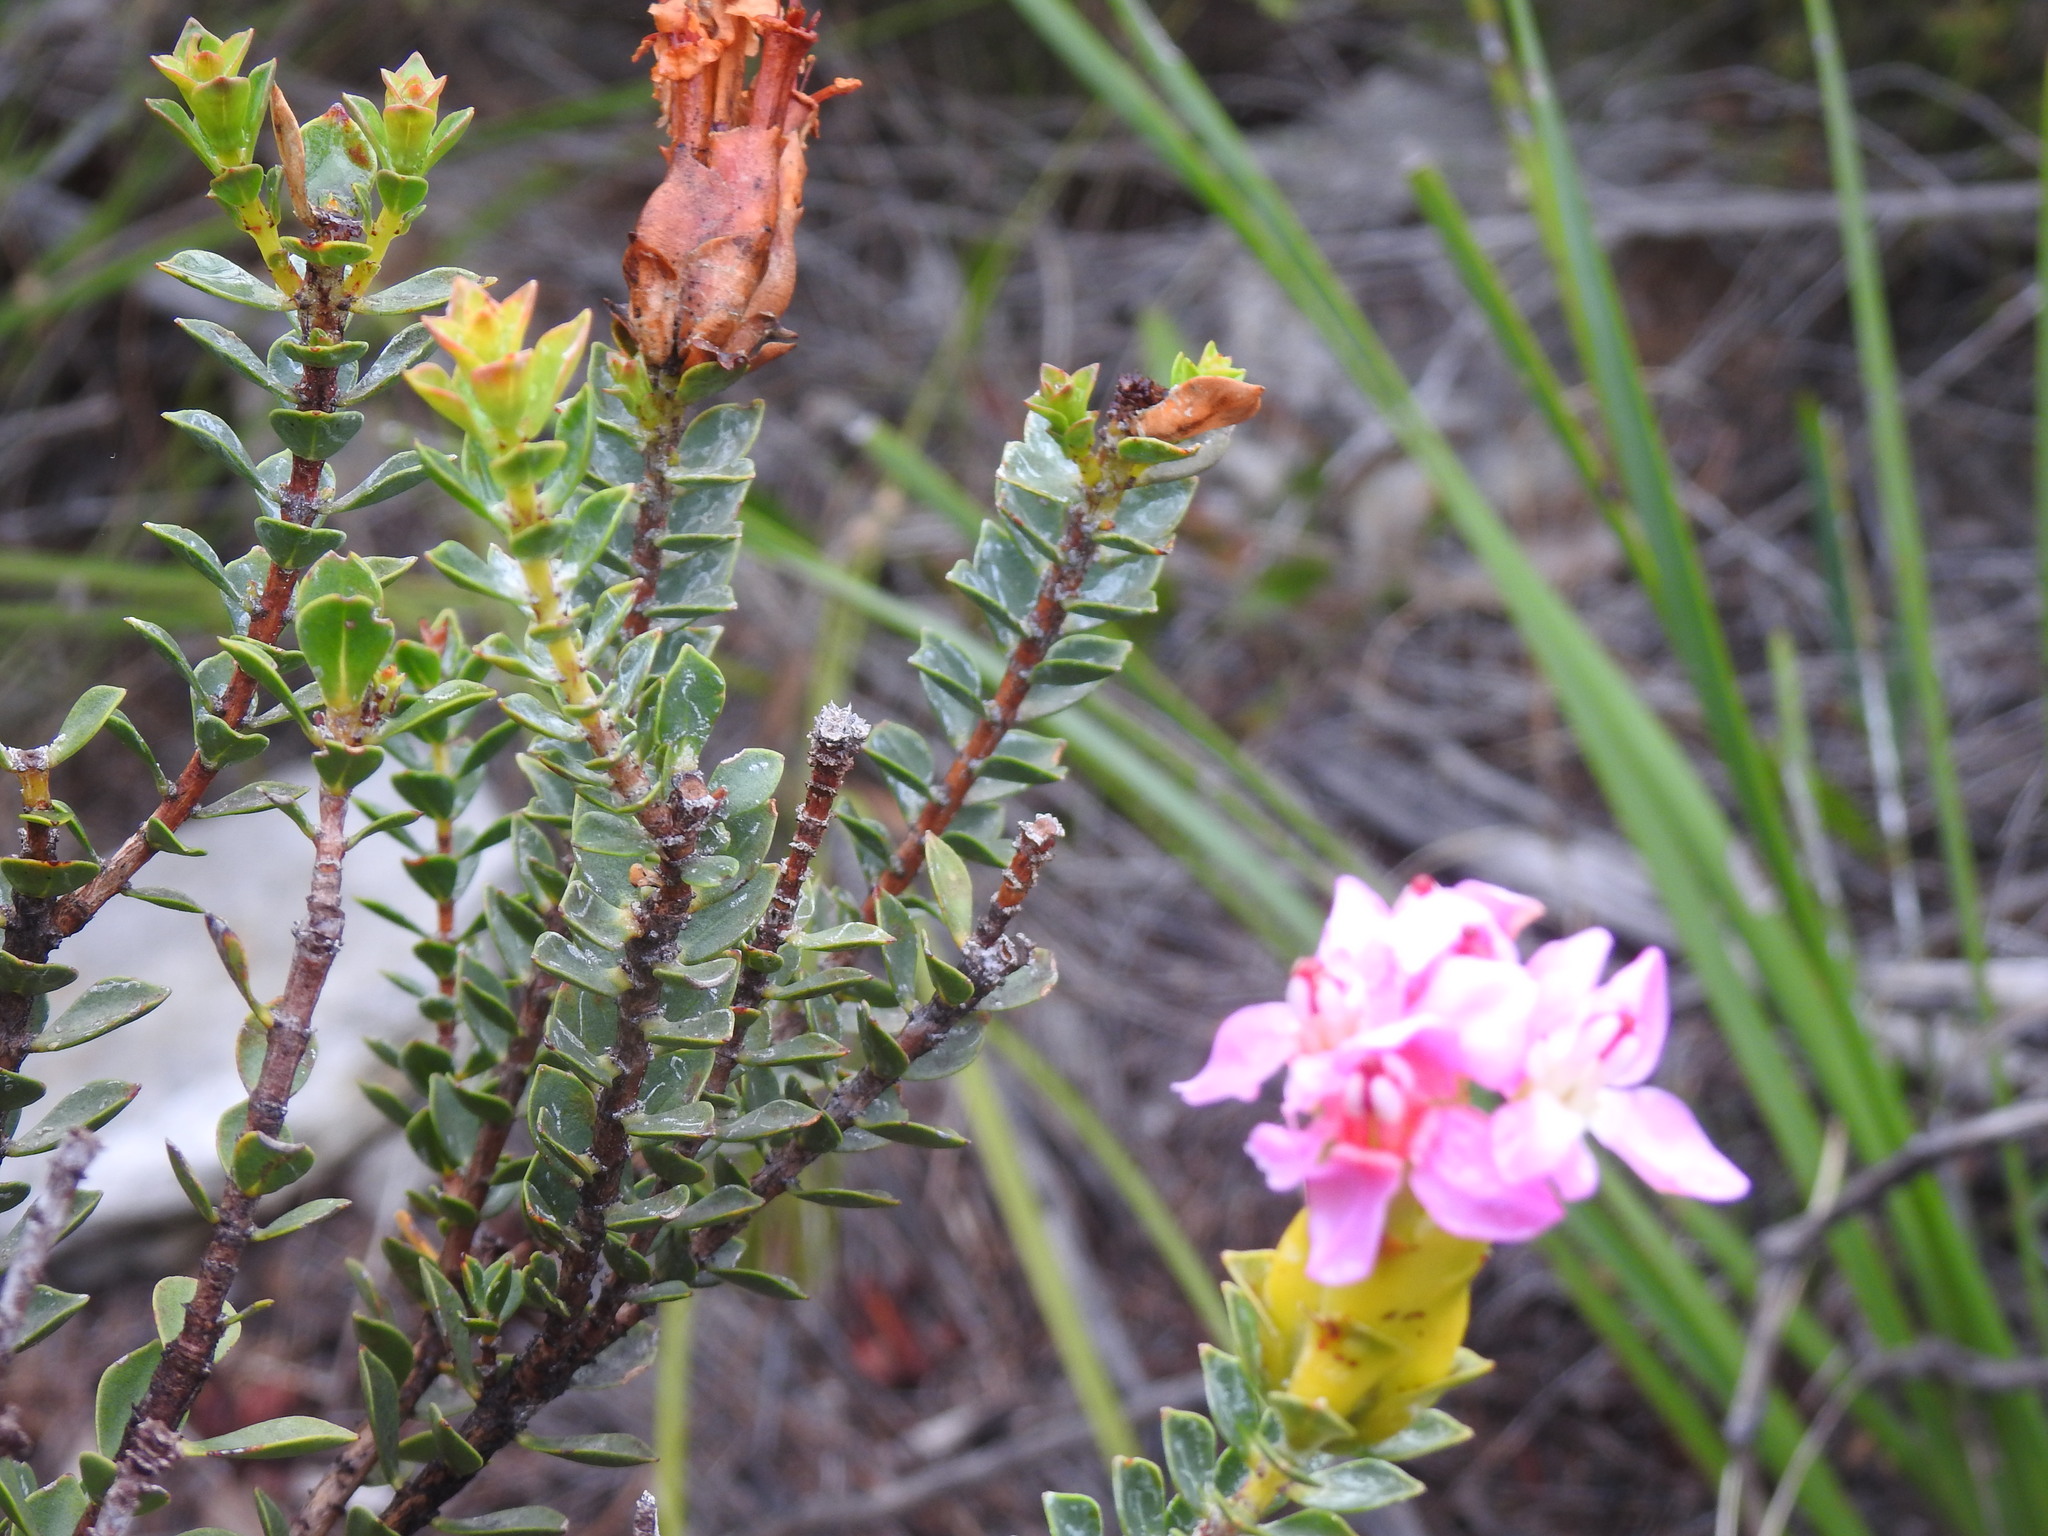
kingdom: Plantae
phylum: Tracheophyta
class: Magnoliopsida
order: Myrtales
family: Penaeaceae
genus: Saltera
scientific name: Saltera sarcocolla
